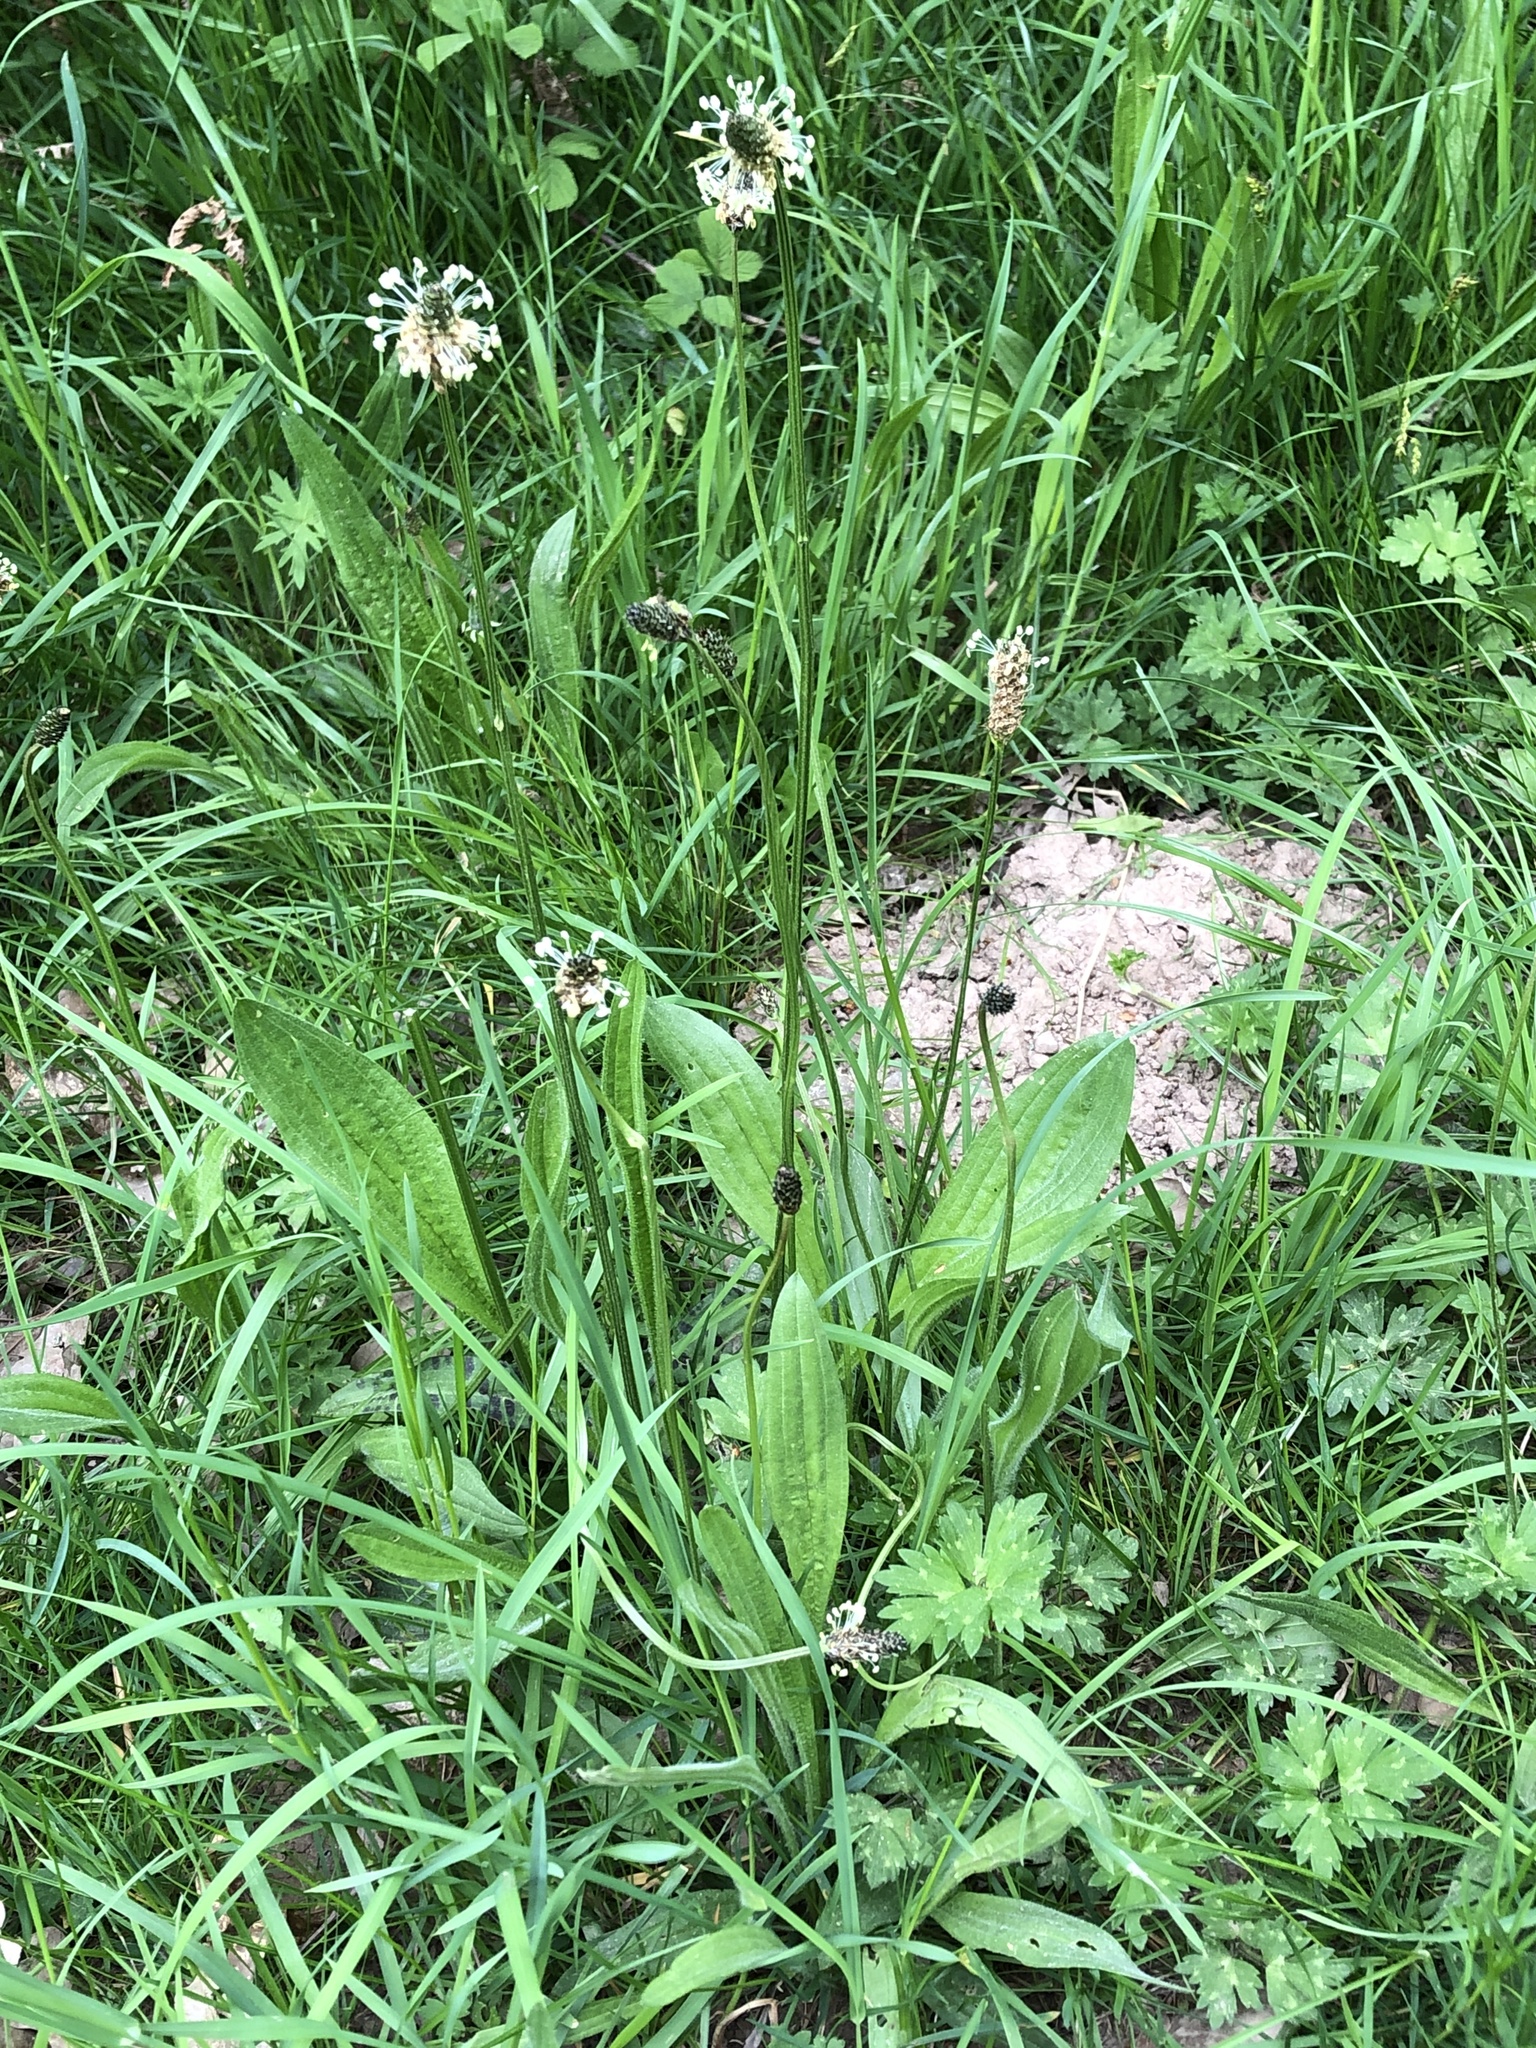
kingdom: Plantae
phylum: Tracheophyta
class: Magnoliopsida
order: Lamiales
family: Plantaginaceae
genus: Plantago
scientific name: Plantago lanceolata
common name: Ribwort plantain
